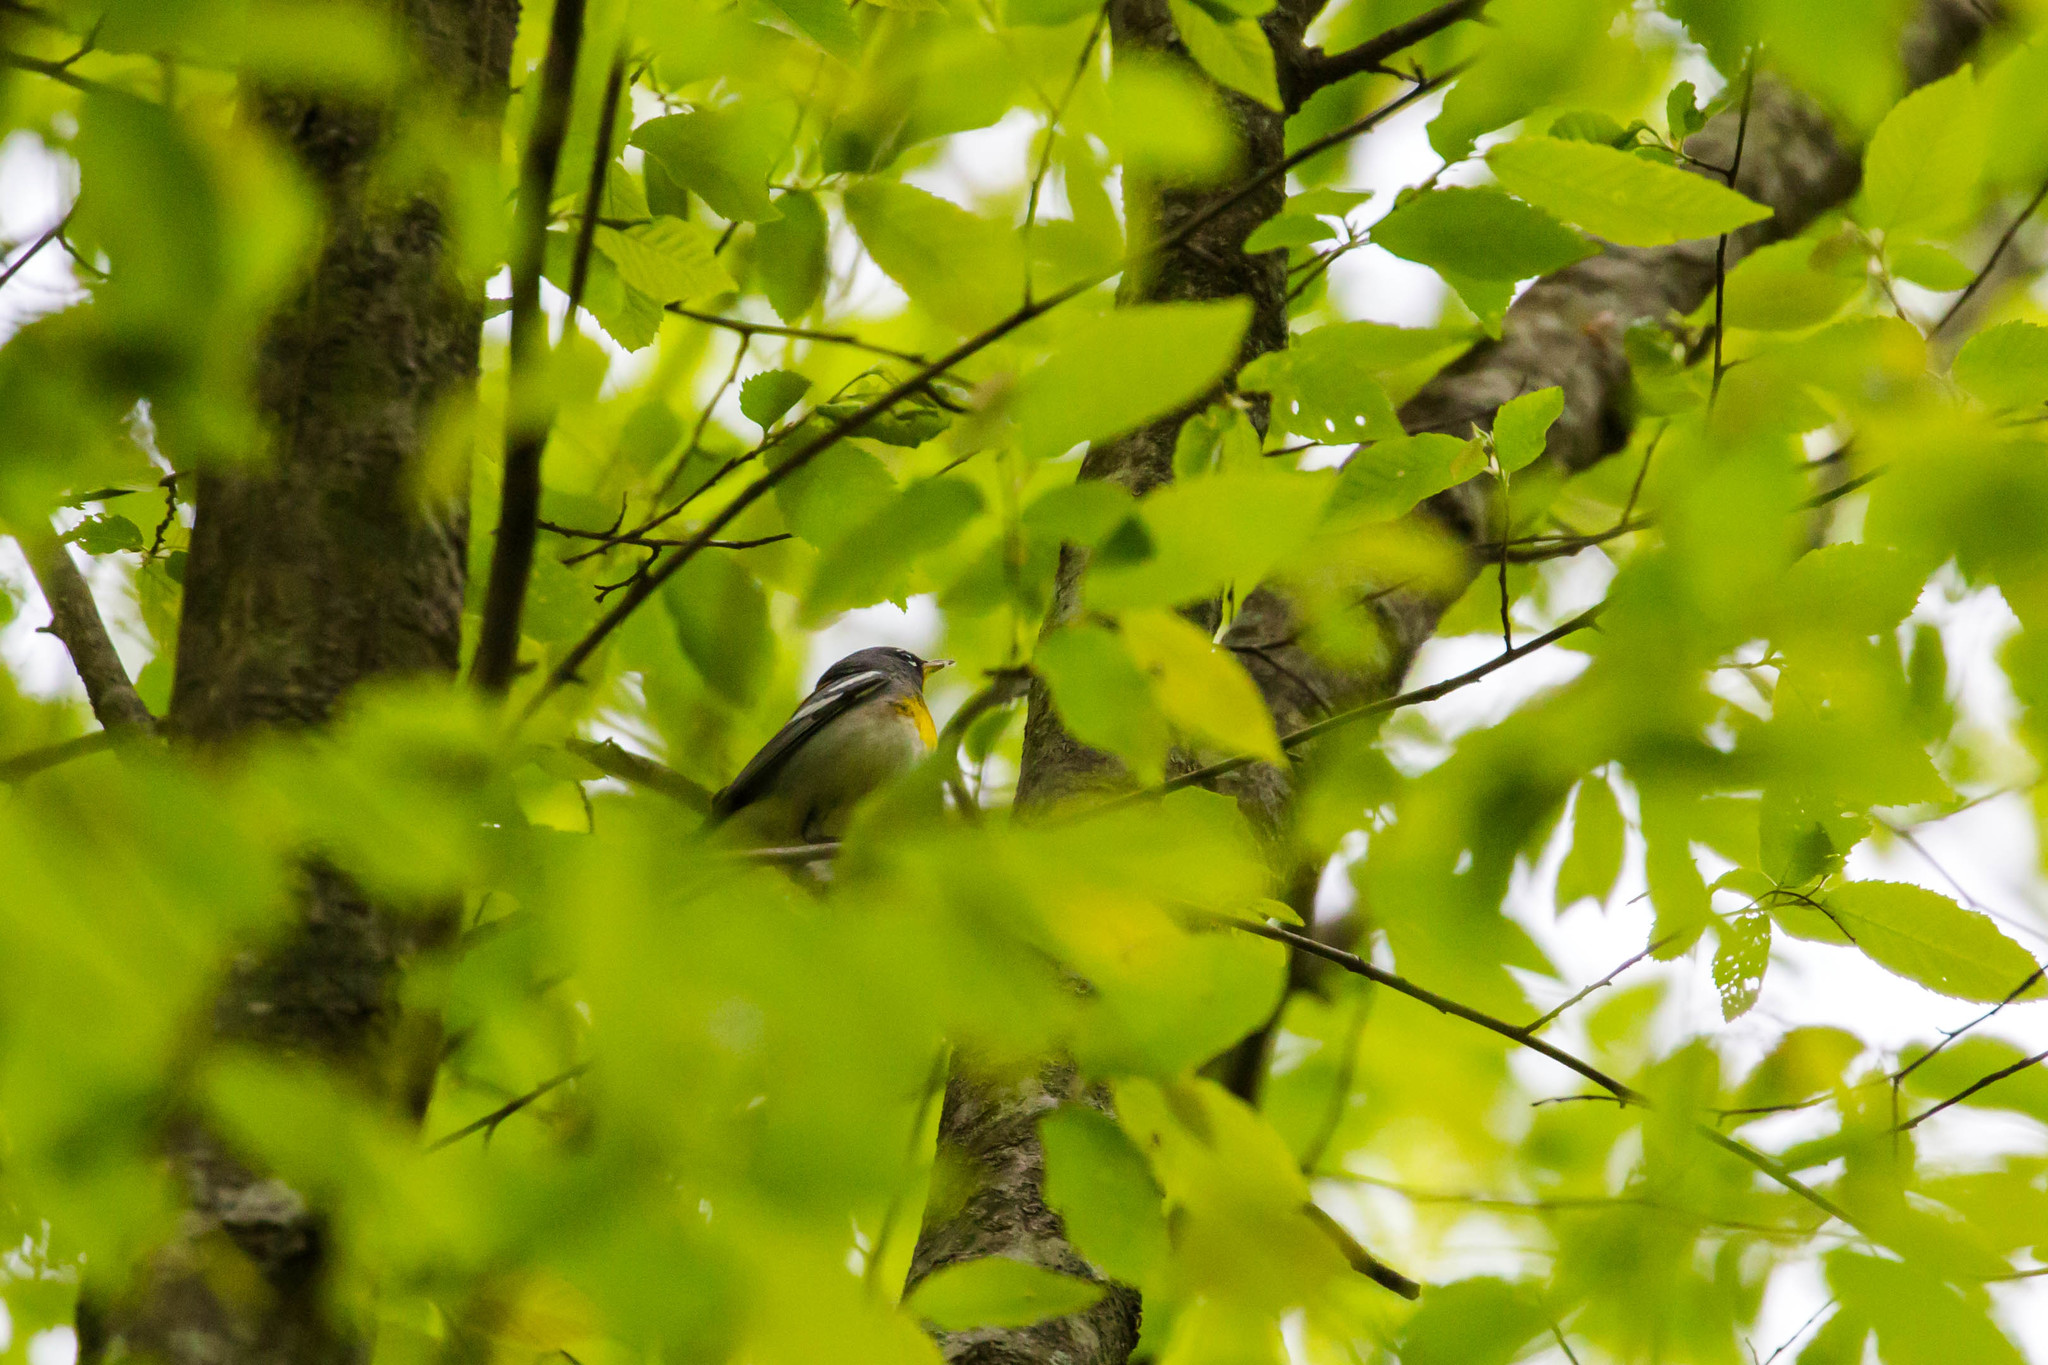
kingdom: Animalia
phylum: Chordata
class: Aves
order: Passeriformes
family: Parulidae
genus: Setophaga
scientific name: Setophaga americana
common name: Northern parula
